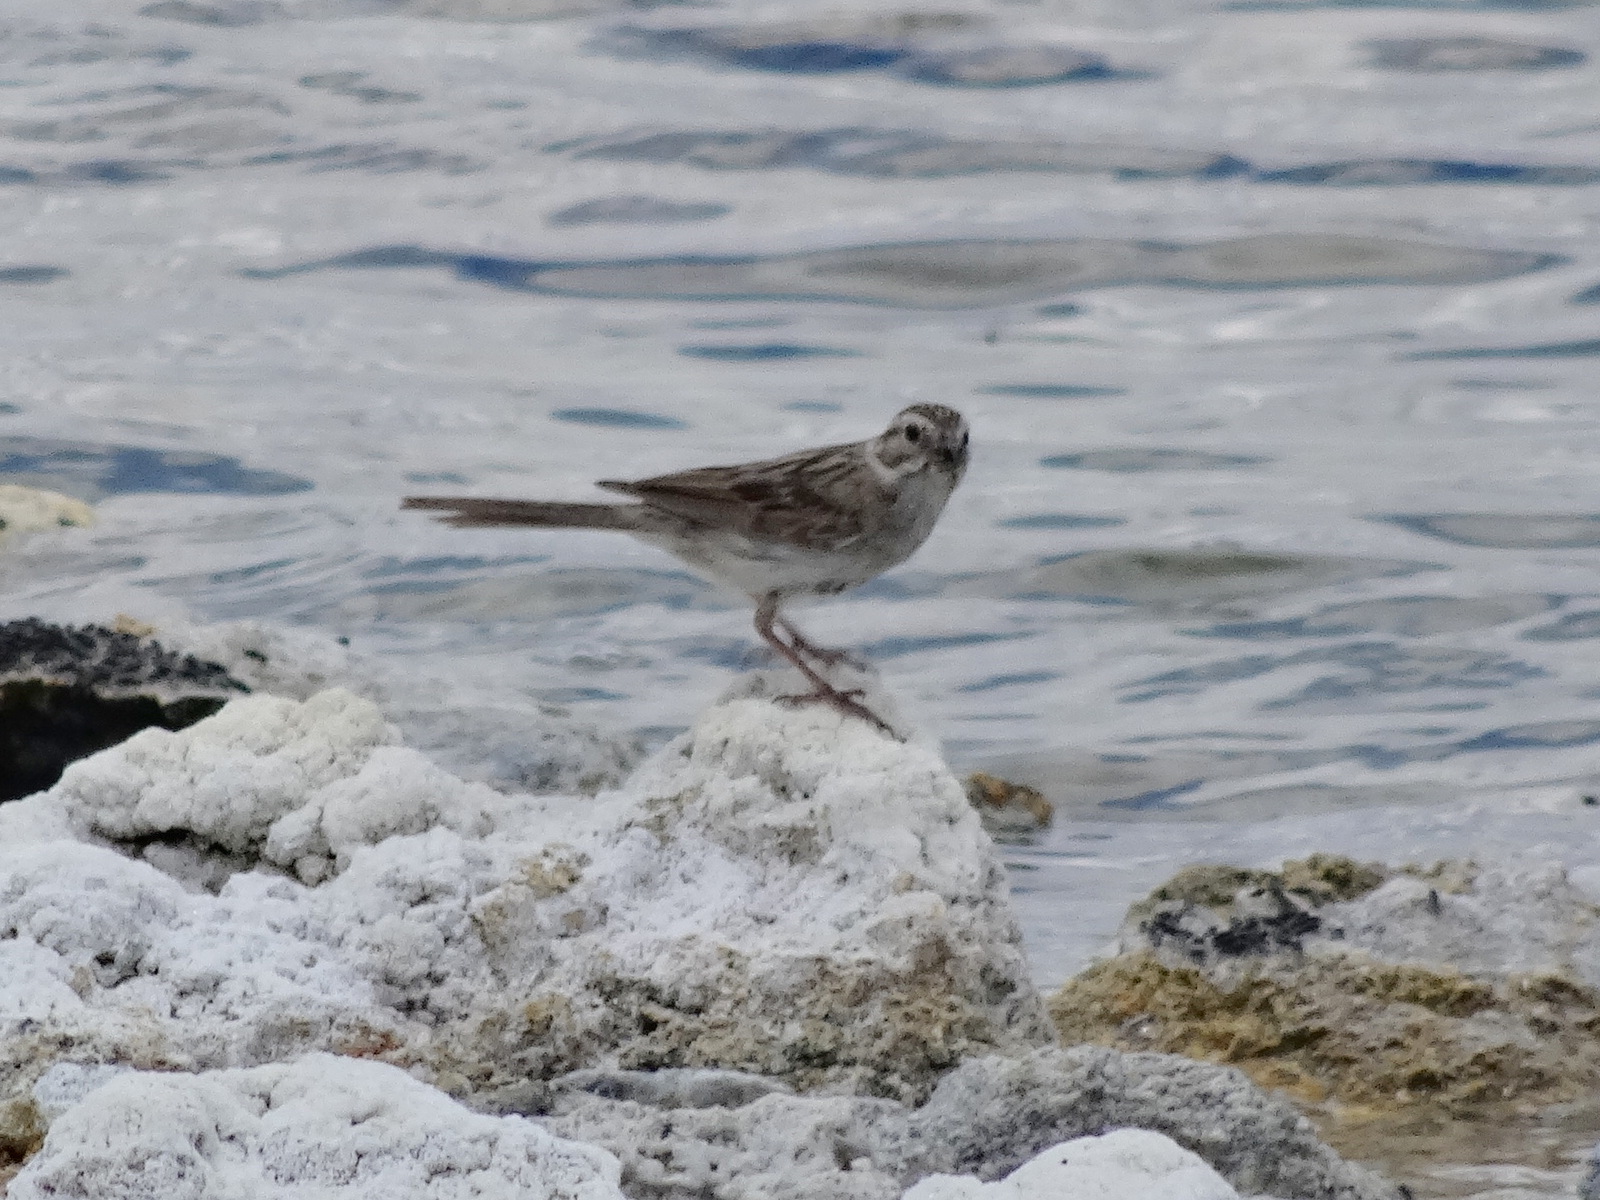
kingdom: Animalia
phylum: Chordata
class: Aves
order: Passeriformes
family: Passerellidae
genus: Spizella
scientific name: Spizella breweri
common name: Brewer's sparrow
